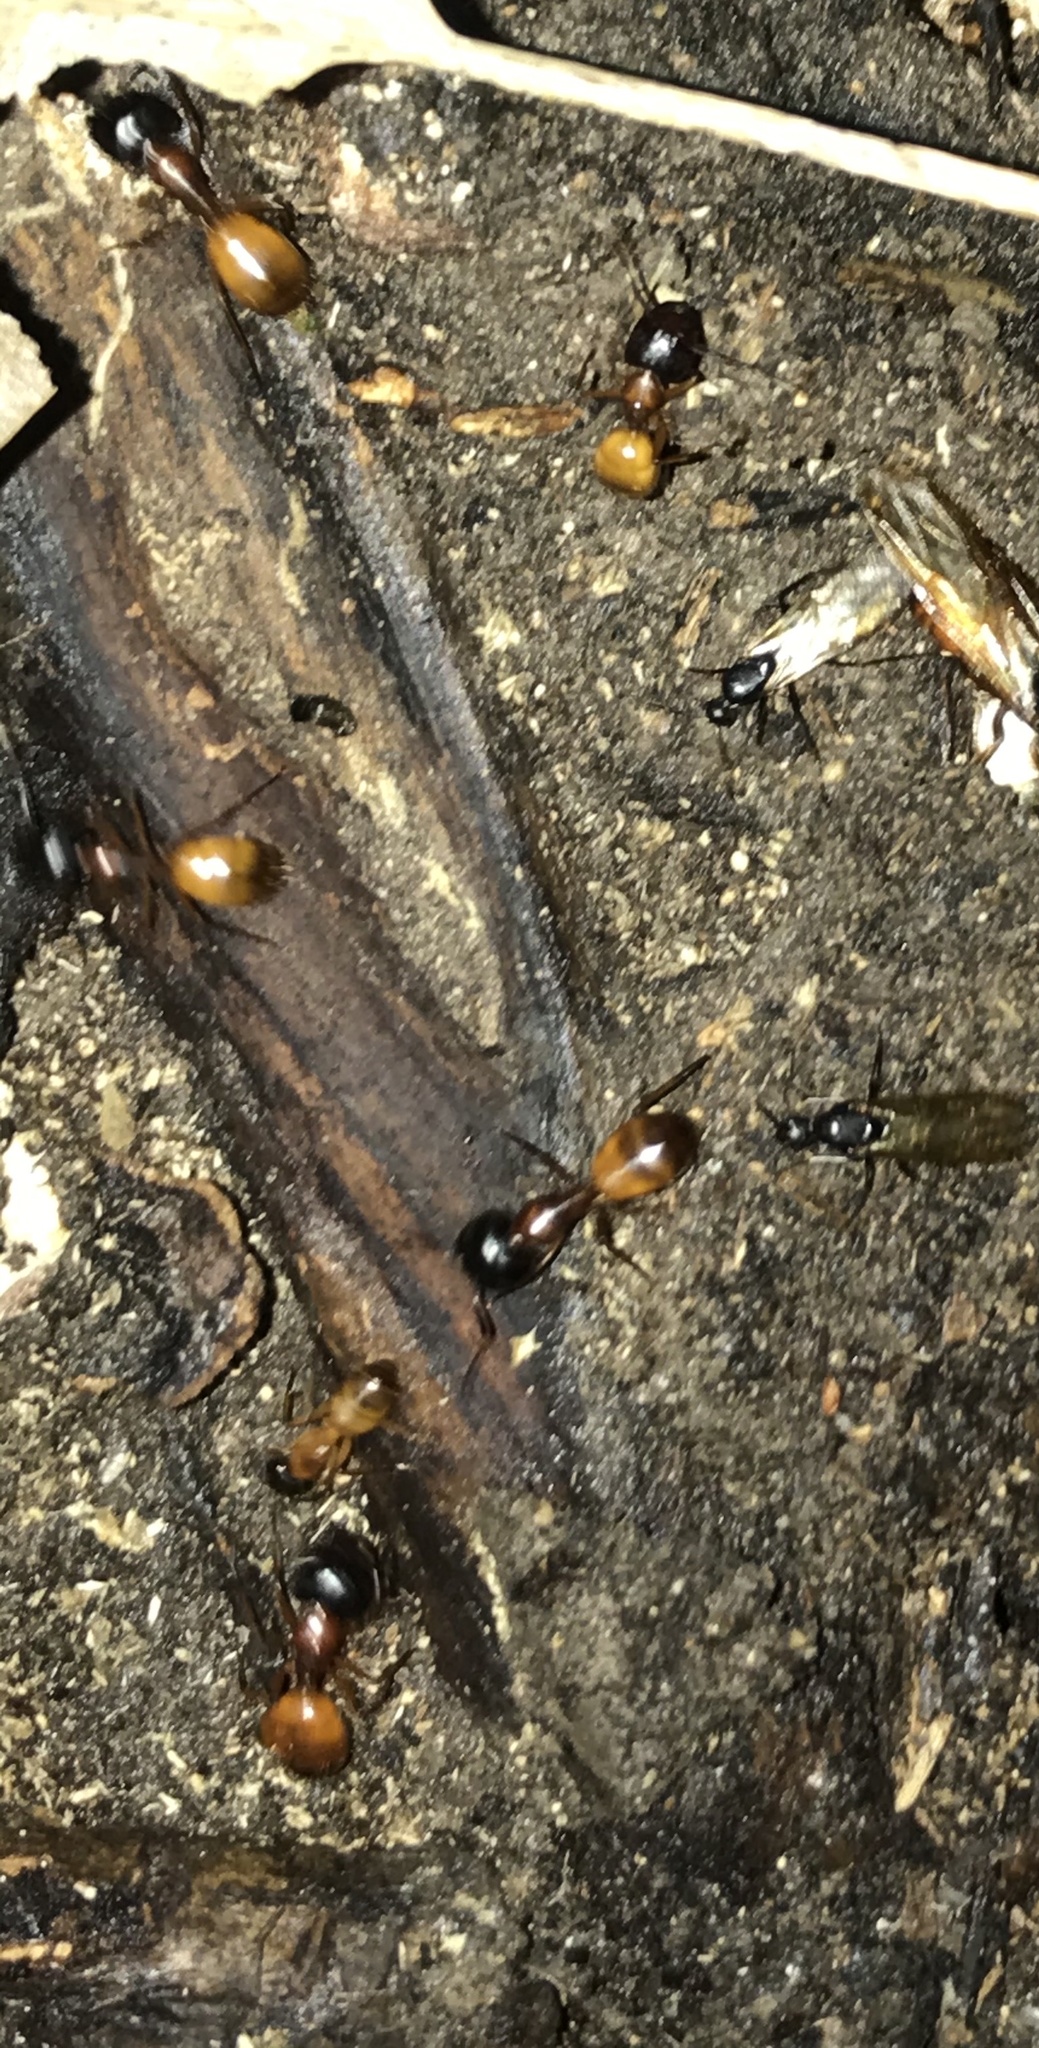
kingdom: Animalia
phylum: Arthropoda
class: Insecta
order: Hymenoptera
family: Formicidae
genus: Camponotus
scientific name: Camponotus sansabeanus
